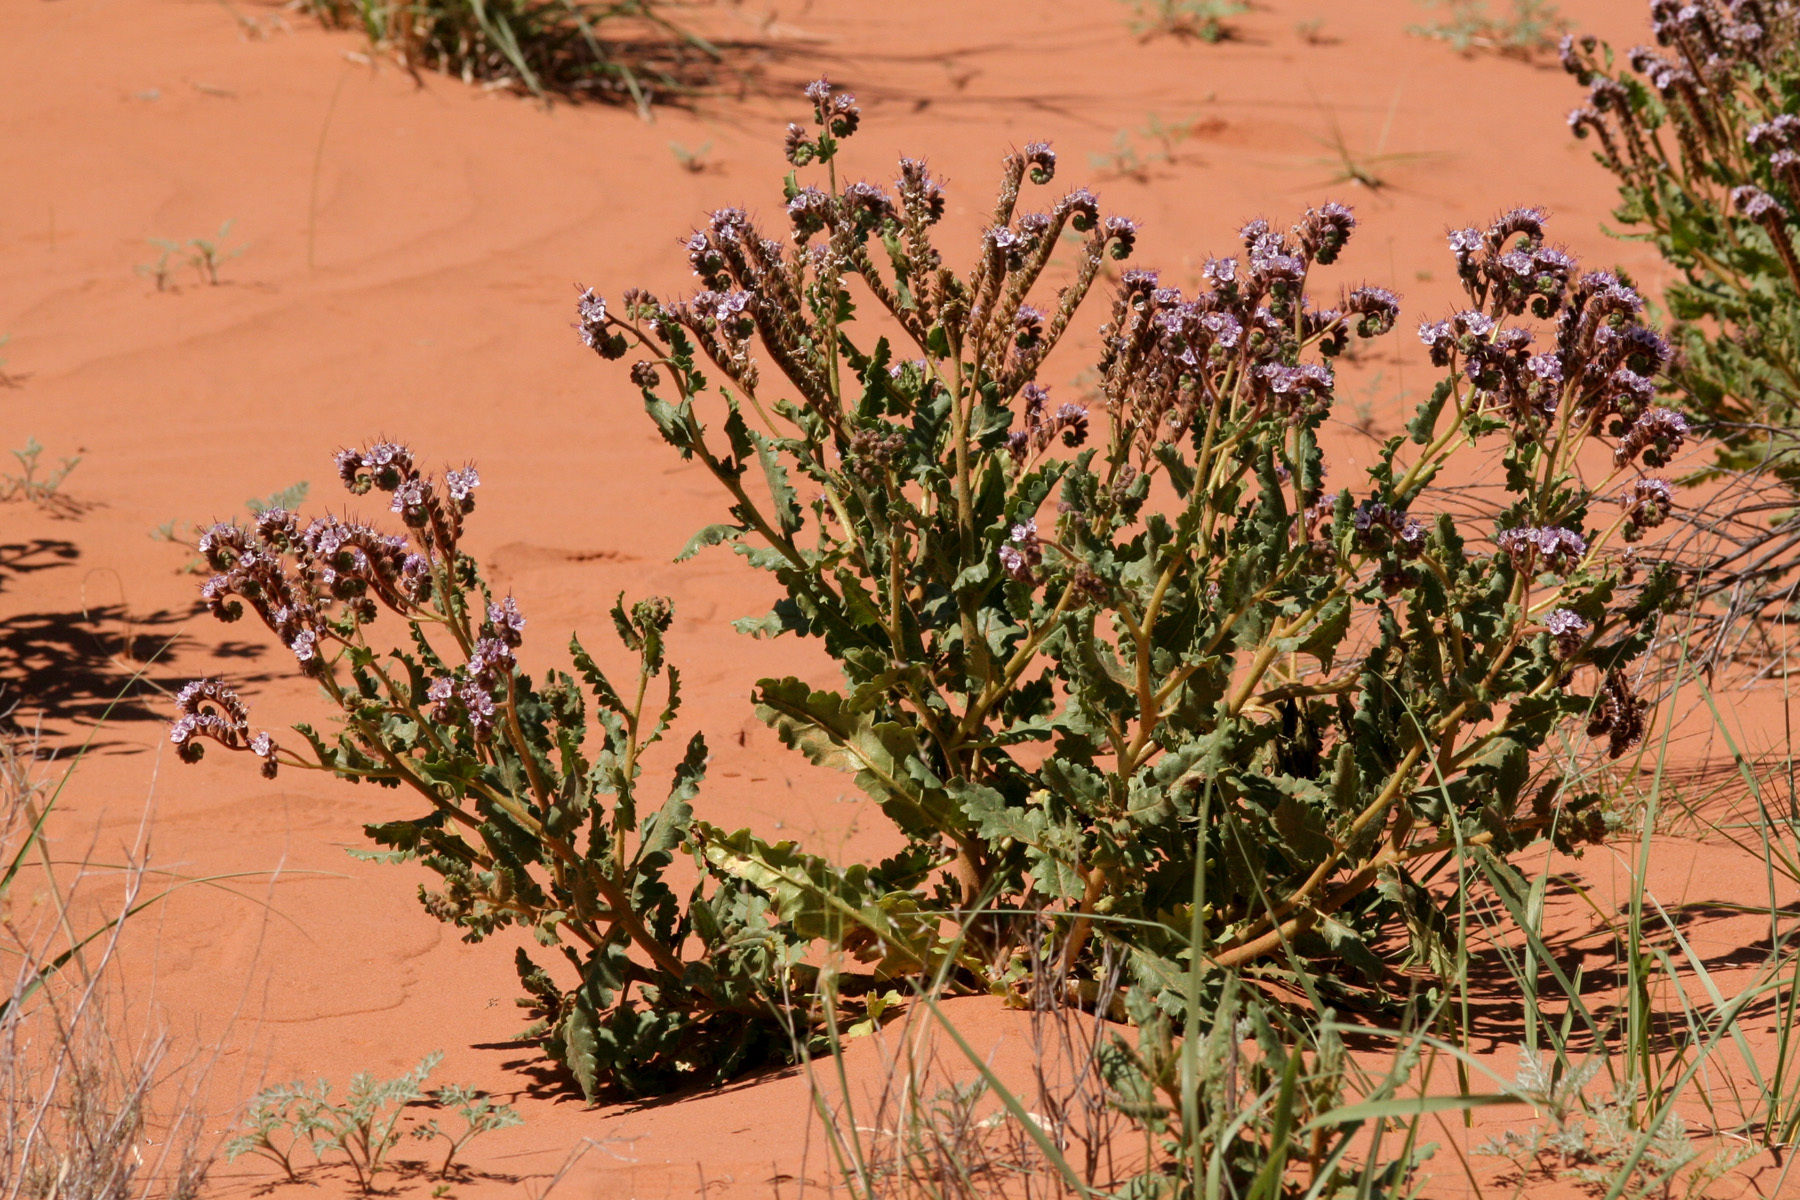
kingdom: Plantae
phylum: Tracheophyta
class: Magnoliopsida
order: Boraginales
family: Hydrophyllaceae
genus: Phacelia
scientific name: Phacelia integrifolia
